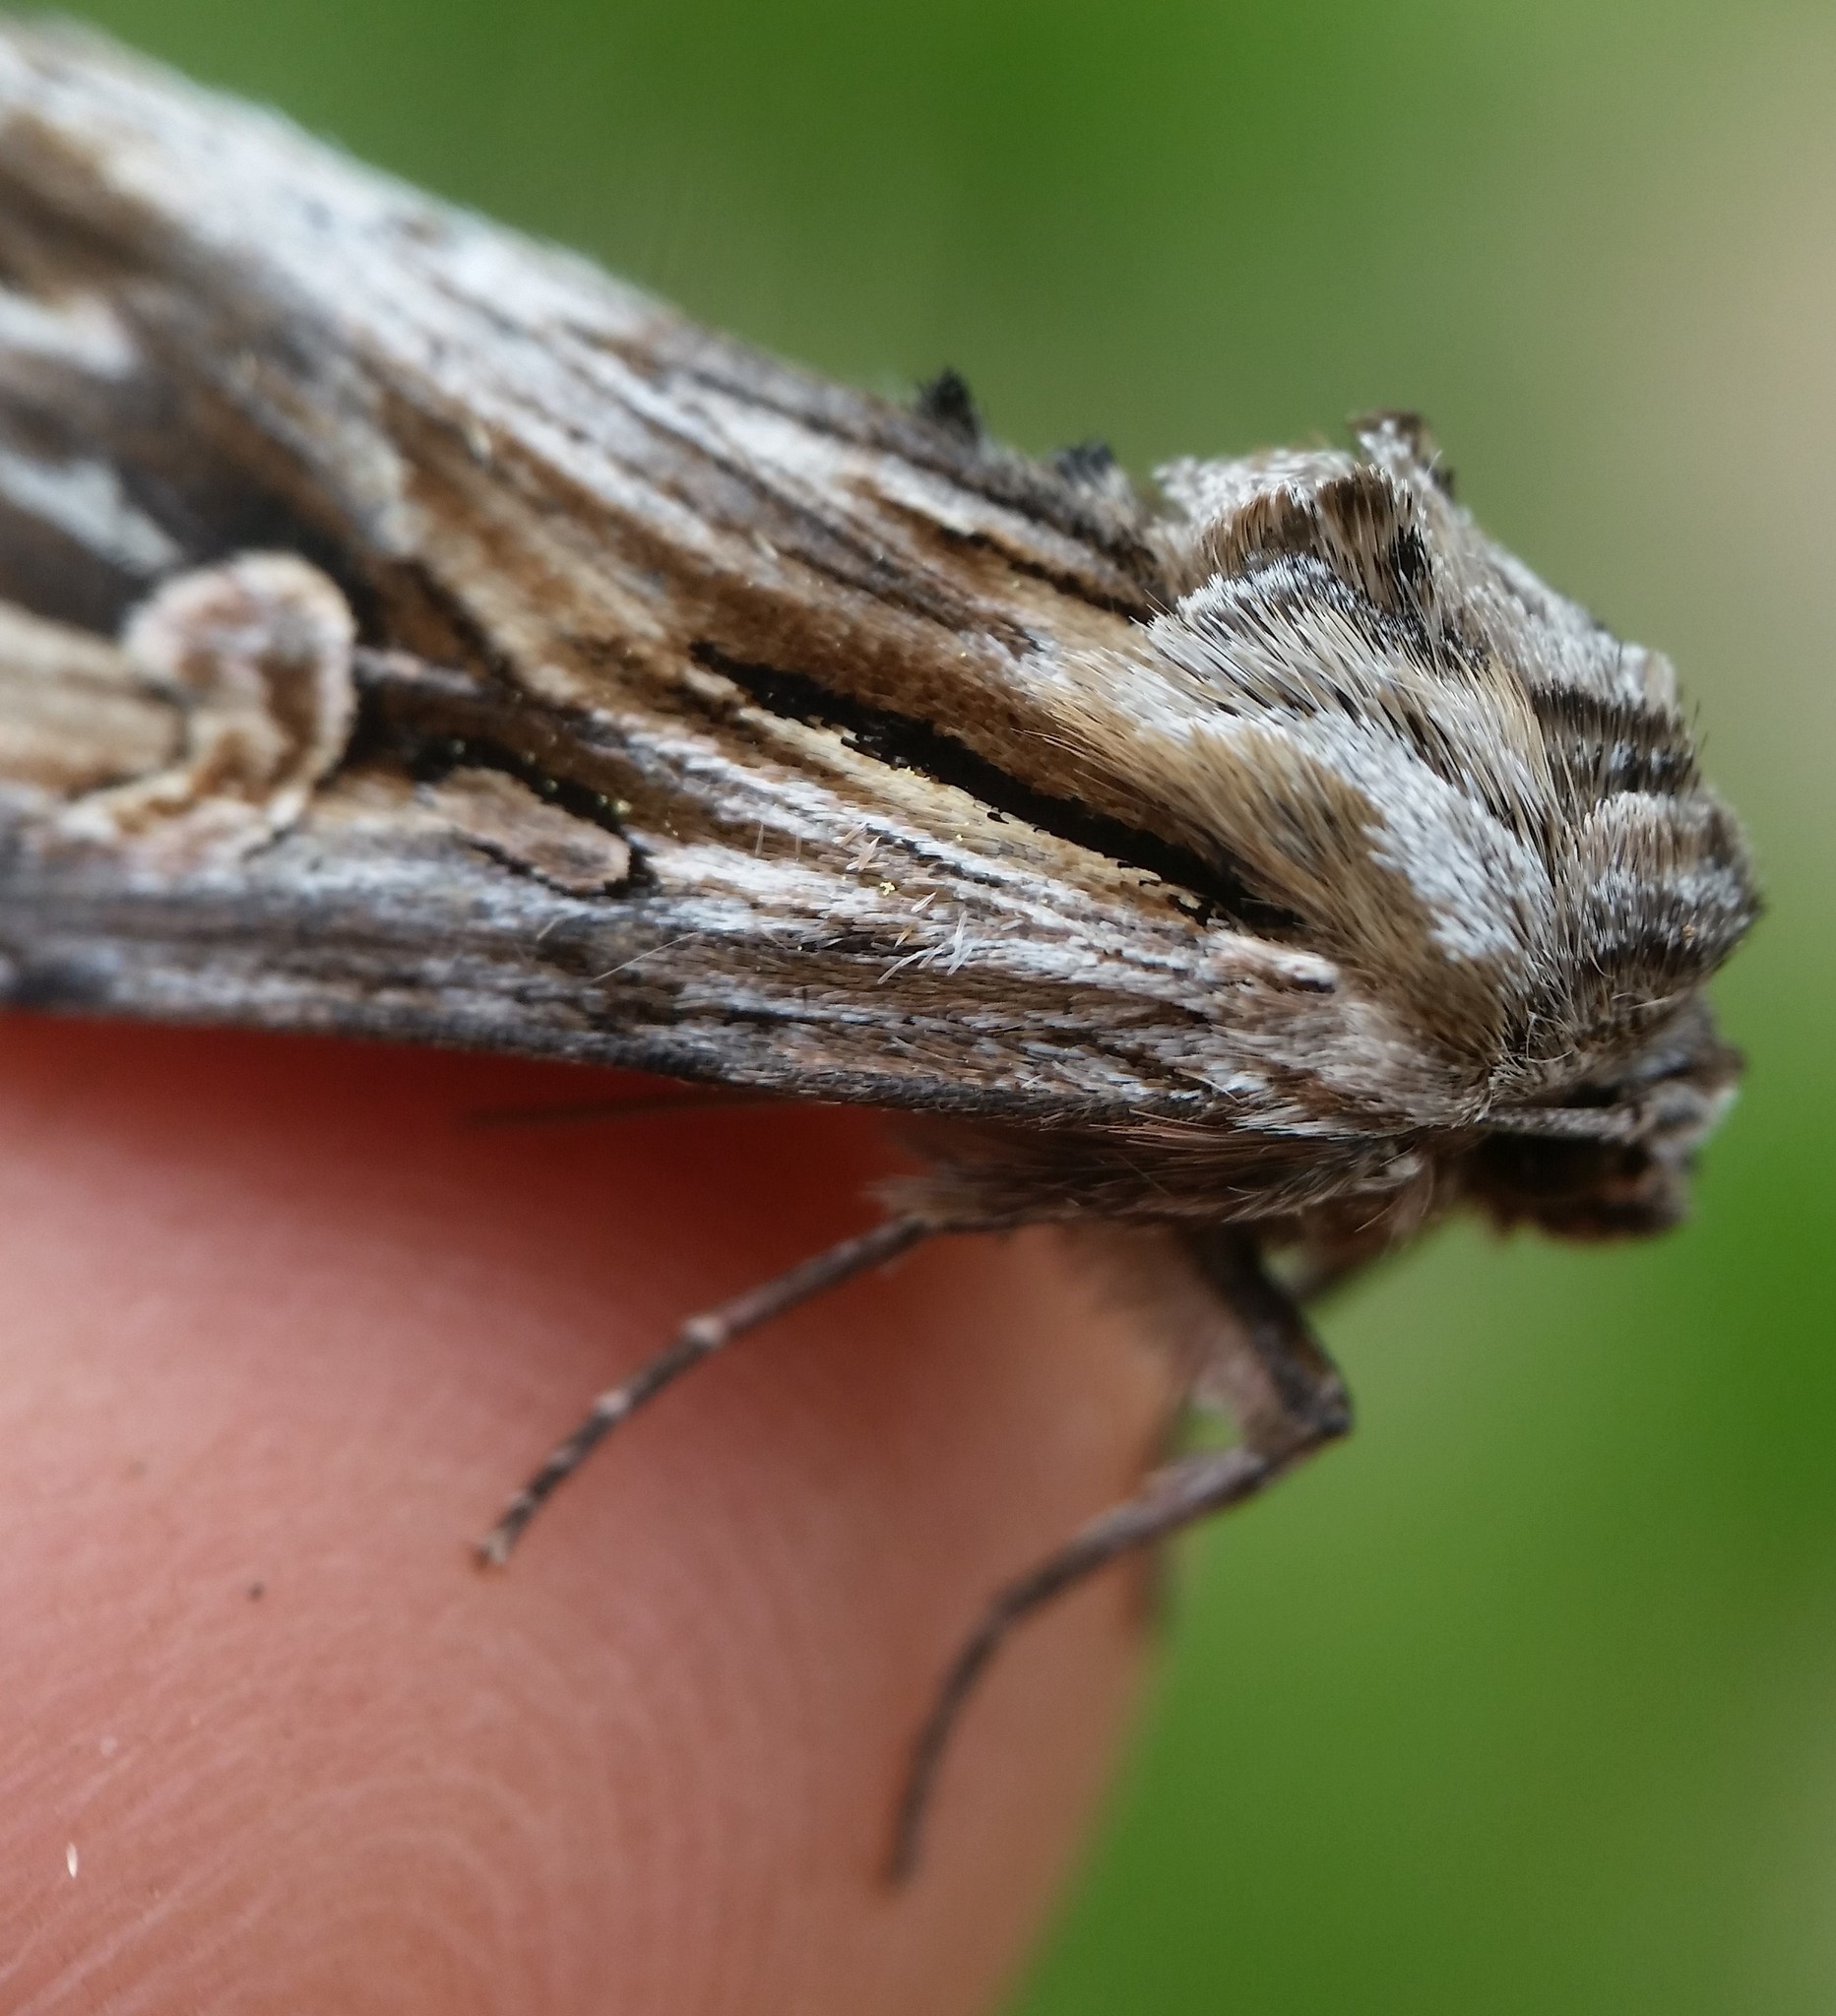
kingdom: Animalia
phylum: Arthropoda
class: Insecta
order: Lepidoptera
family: Noctuidae
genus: Nedra
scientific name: Nedra ramosula
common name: Gray half-spot
